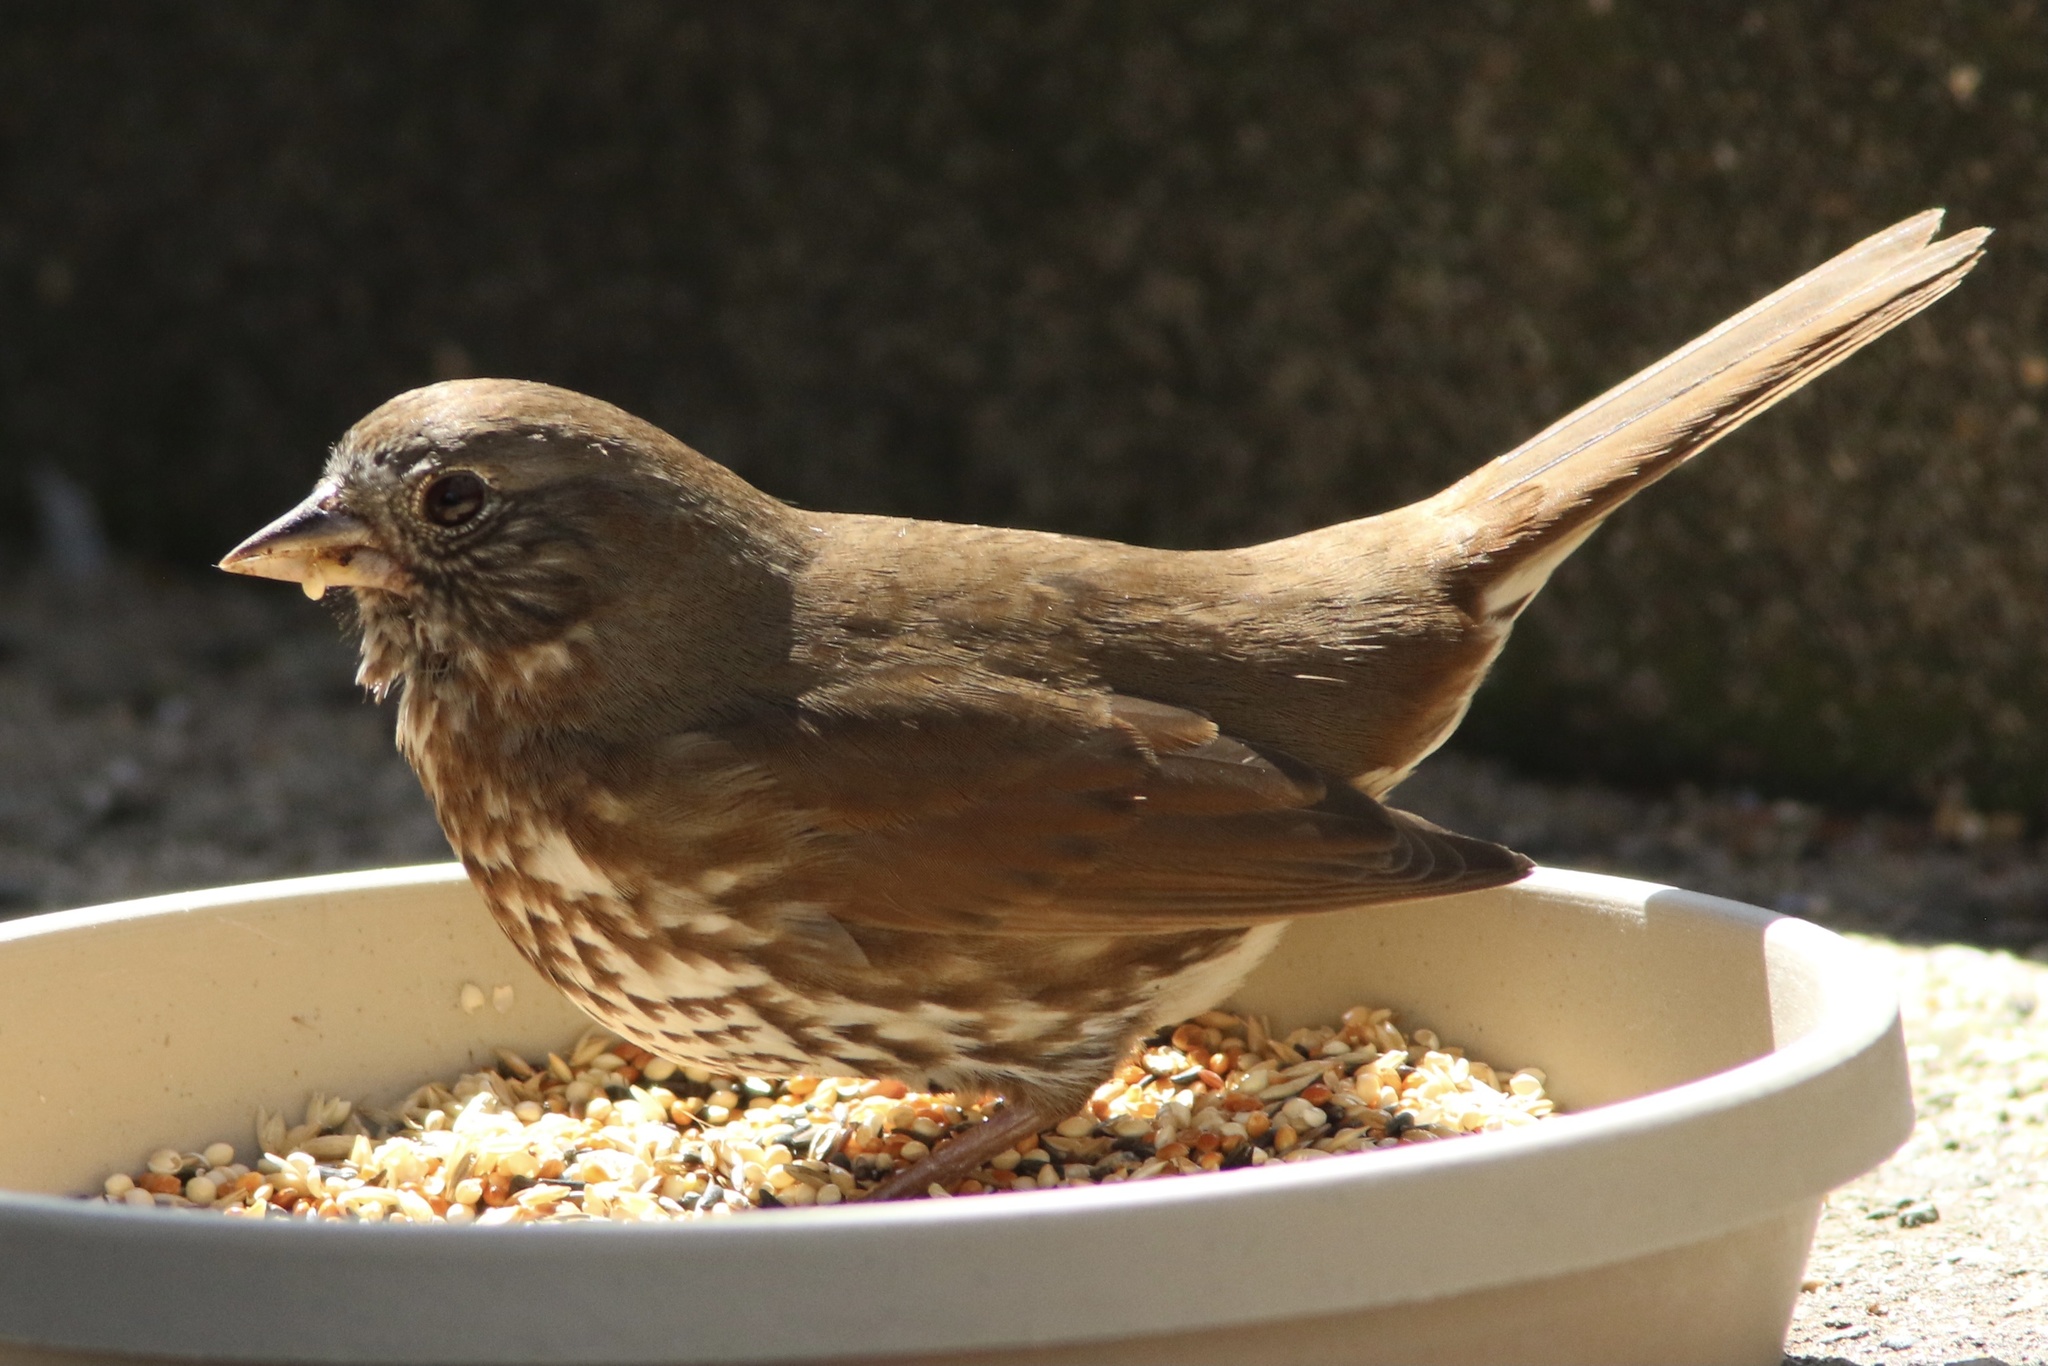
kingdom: Animalia
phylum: Chordata
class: Aves
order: Passeriformes
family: Passerellidae
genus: Passerella
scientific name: Passerella iliaca
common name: Fox sparrow
